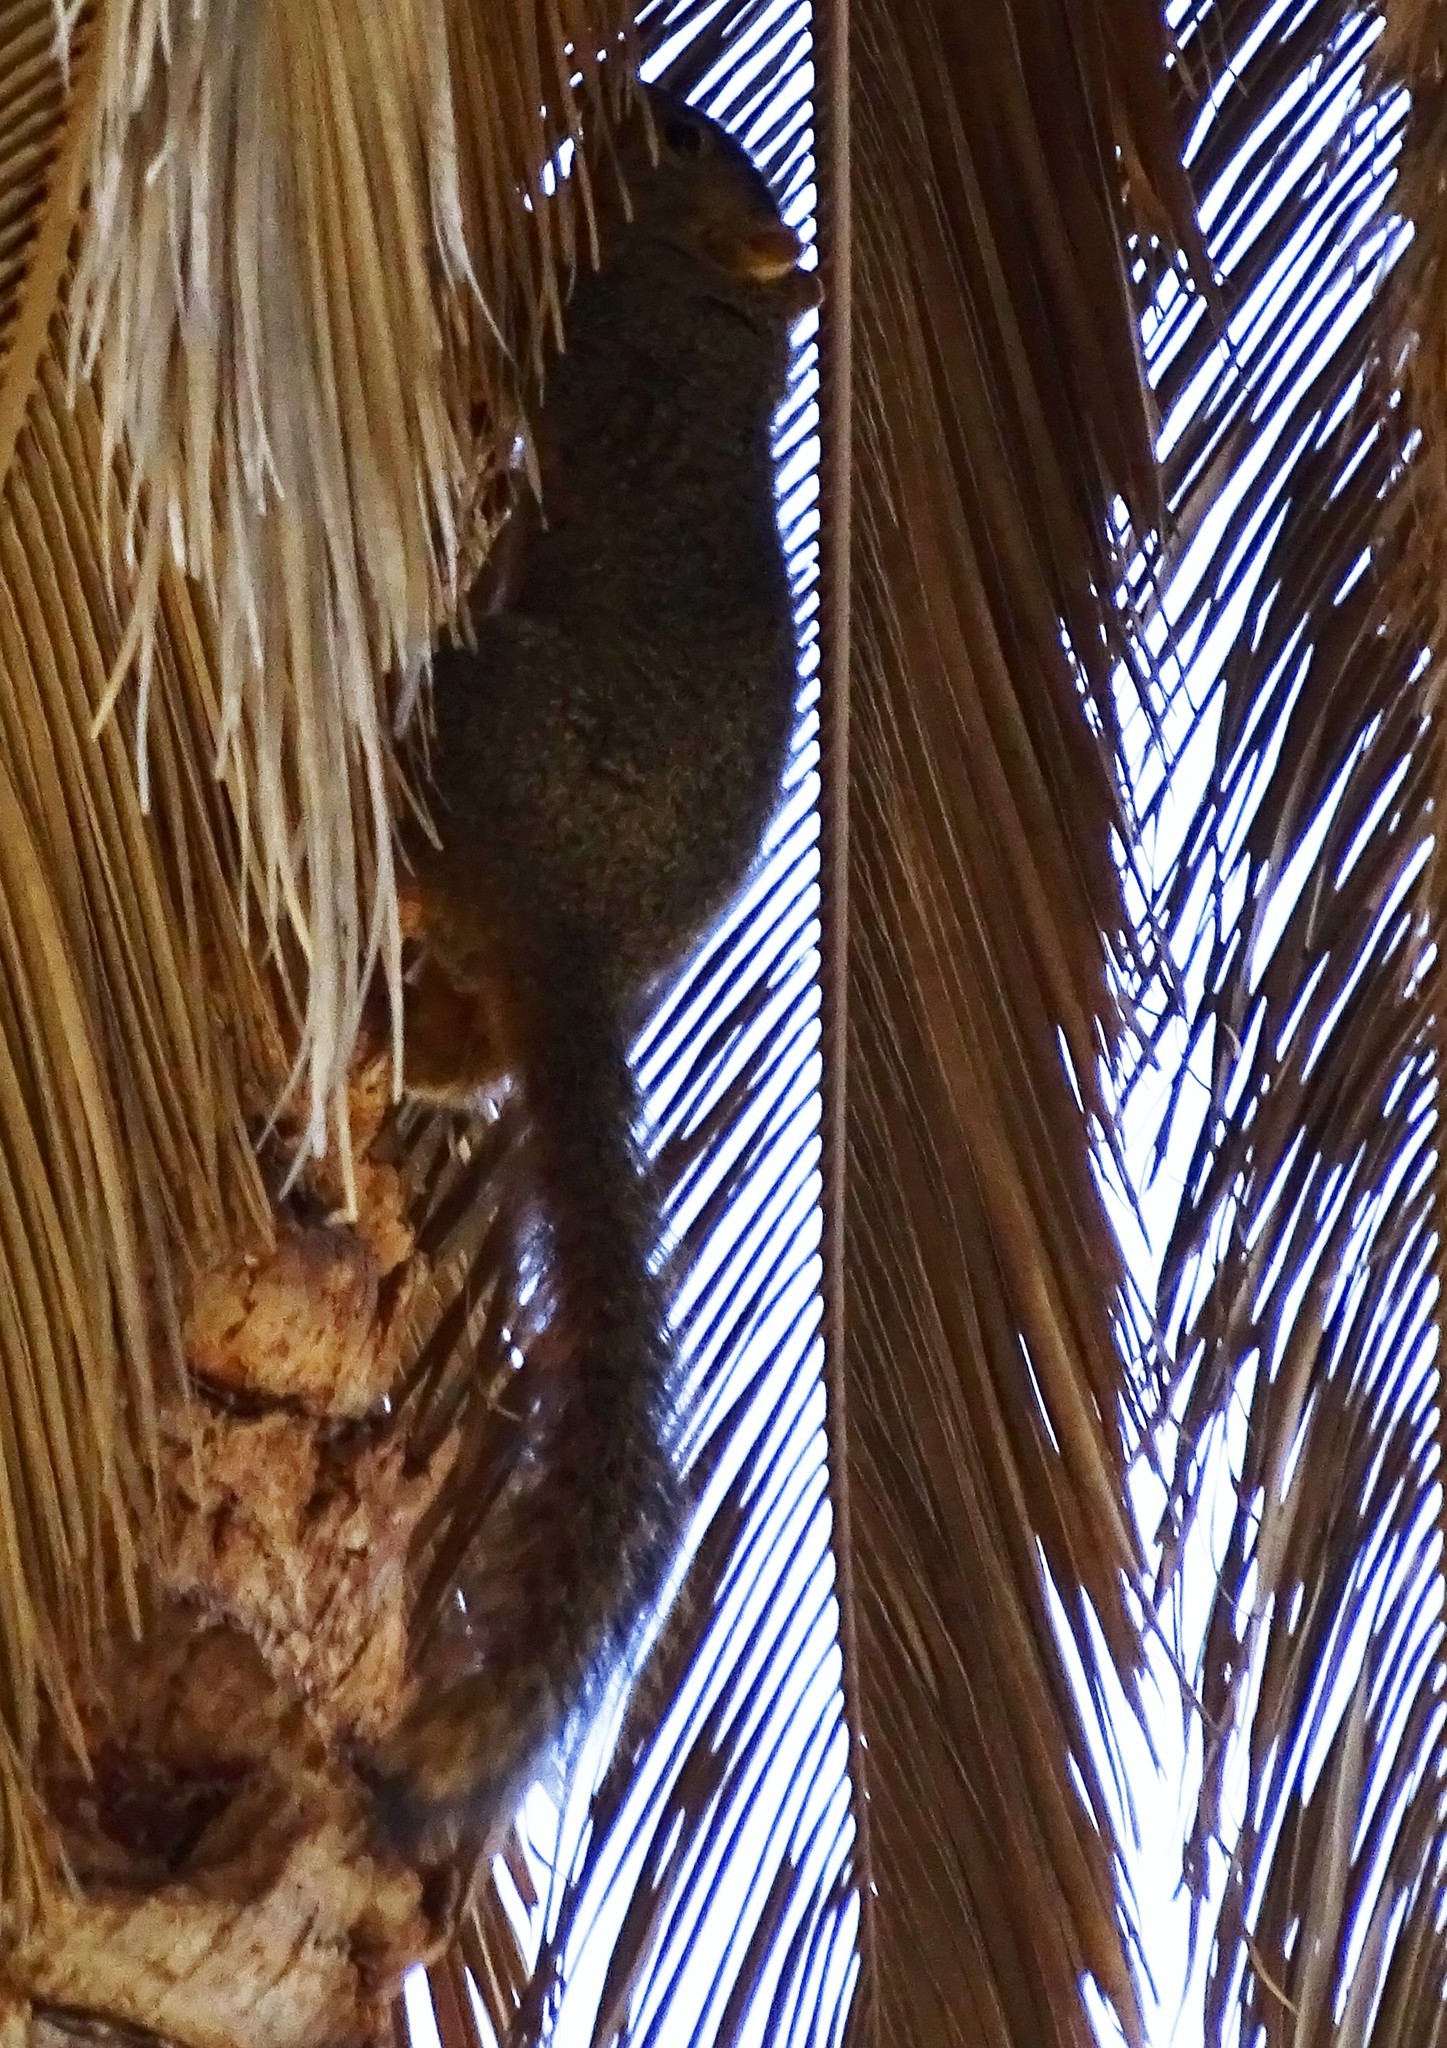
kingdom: Animalia
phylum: Chordata
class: Mammalia
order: Rodentia
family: Sciuridae
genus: Sciurus
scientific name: Sciurus niger
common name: Fox squirrel
